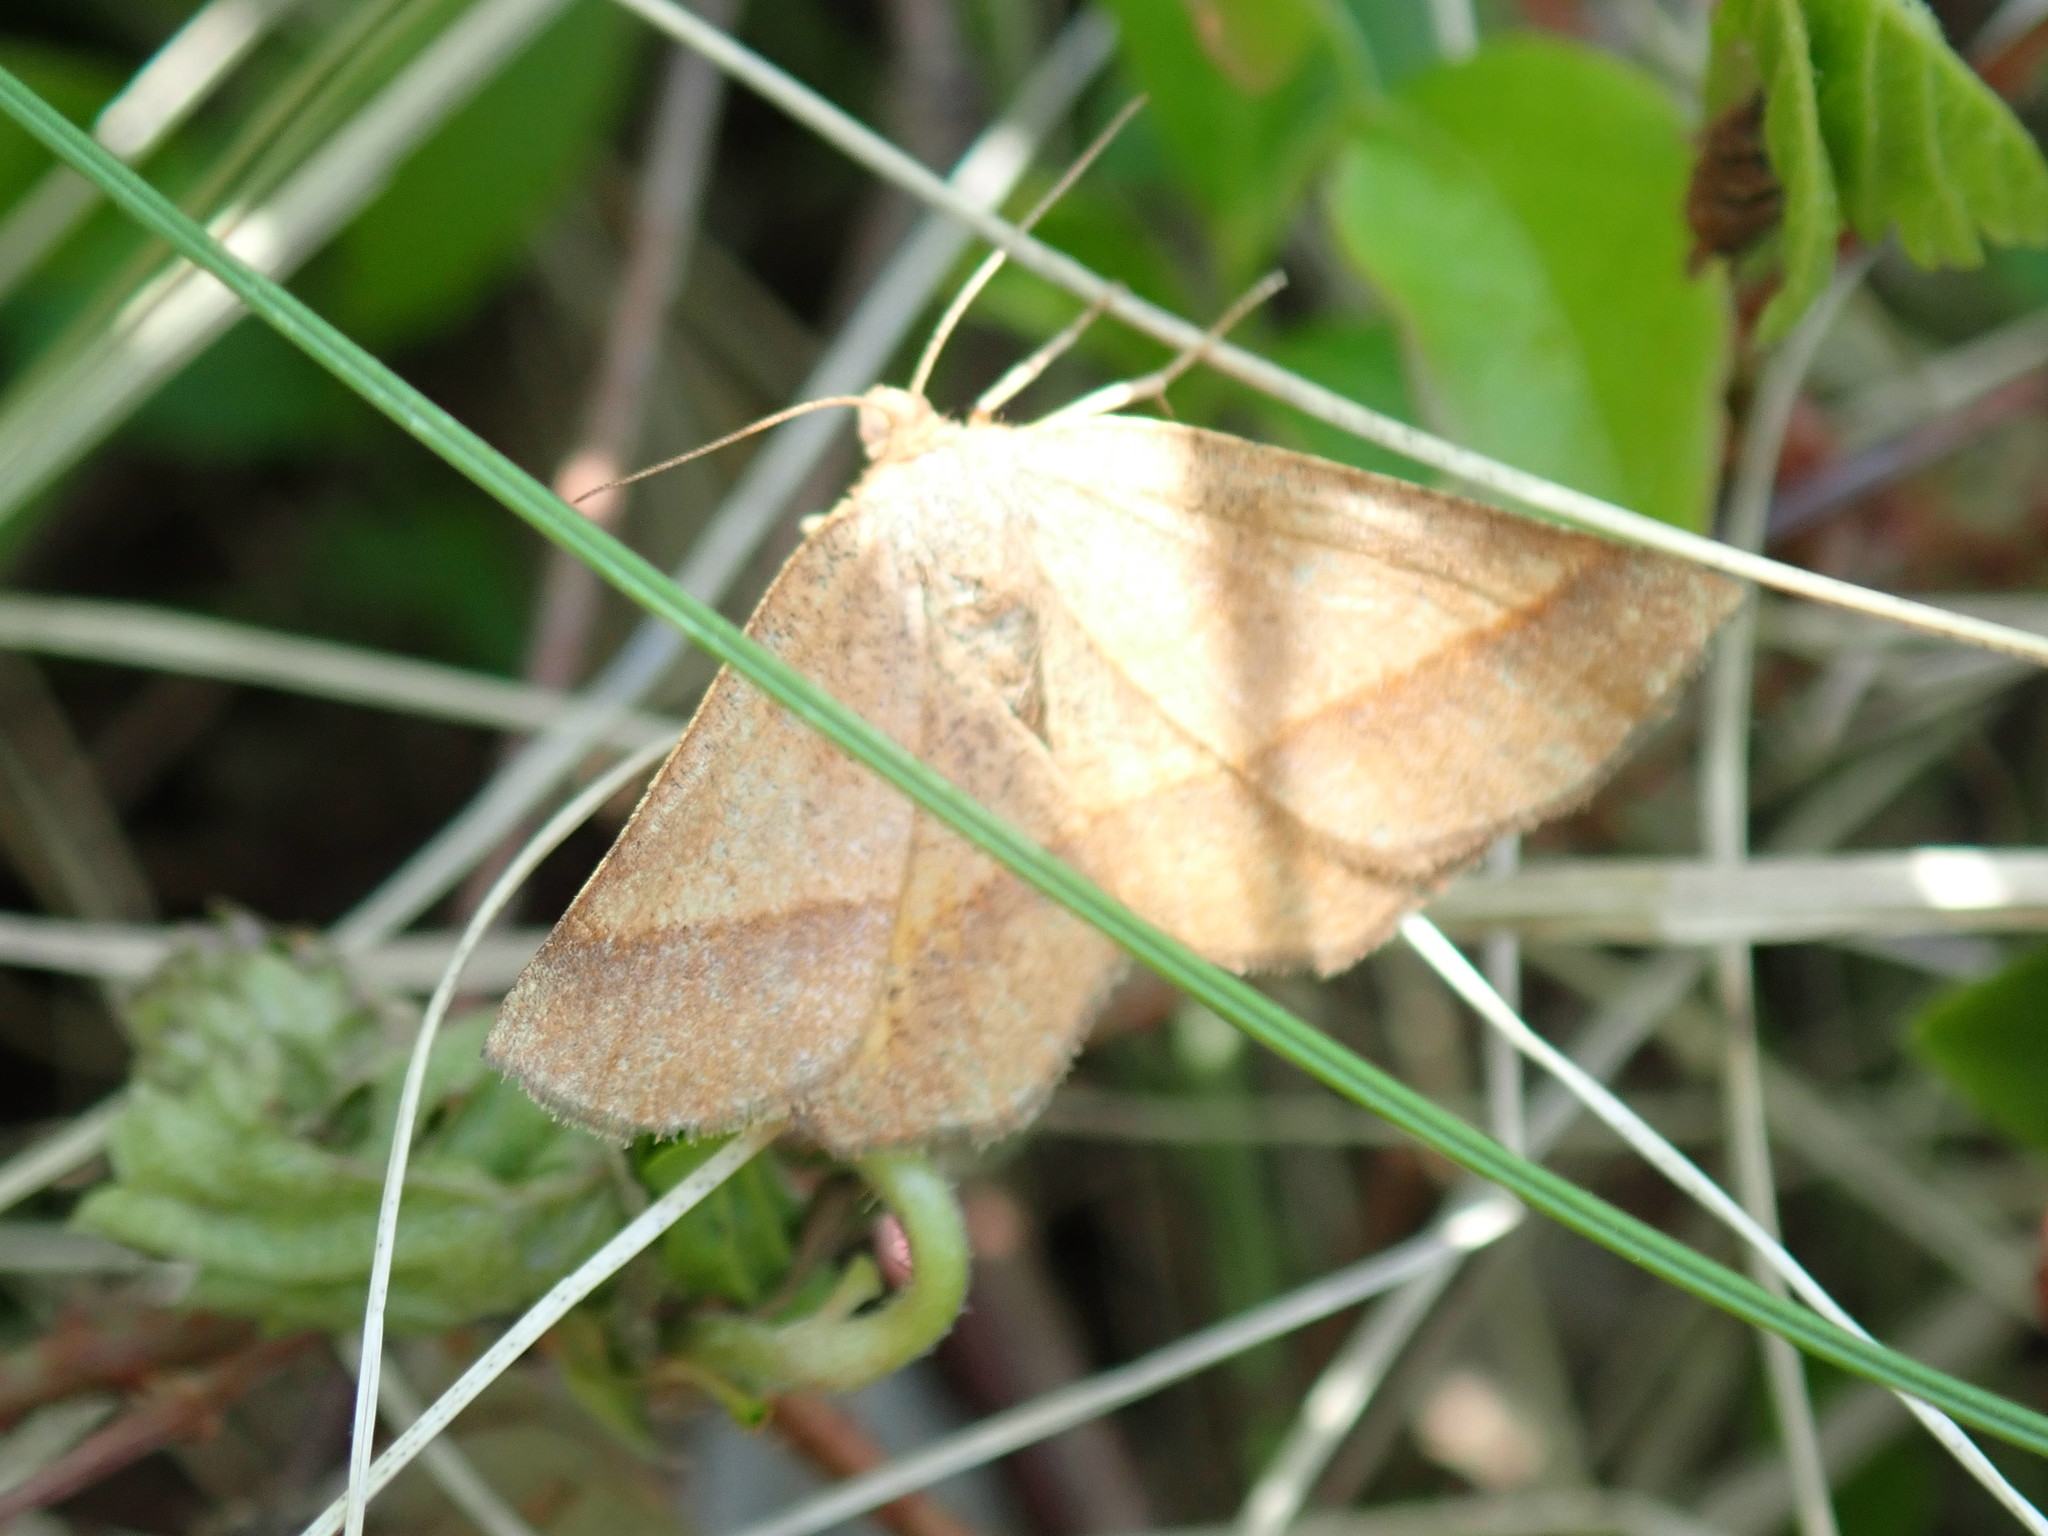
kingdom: Animalia
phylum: Arthropoda
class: Insecta
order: Lepidoptera
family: Geometridae
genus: Metarranthis
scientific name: Metarranthis obfirmaria
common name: Yellow-washed metarranthis
